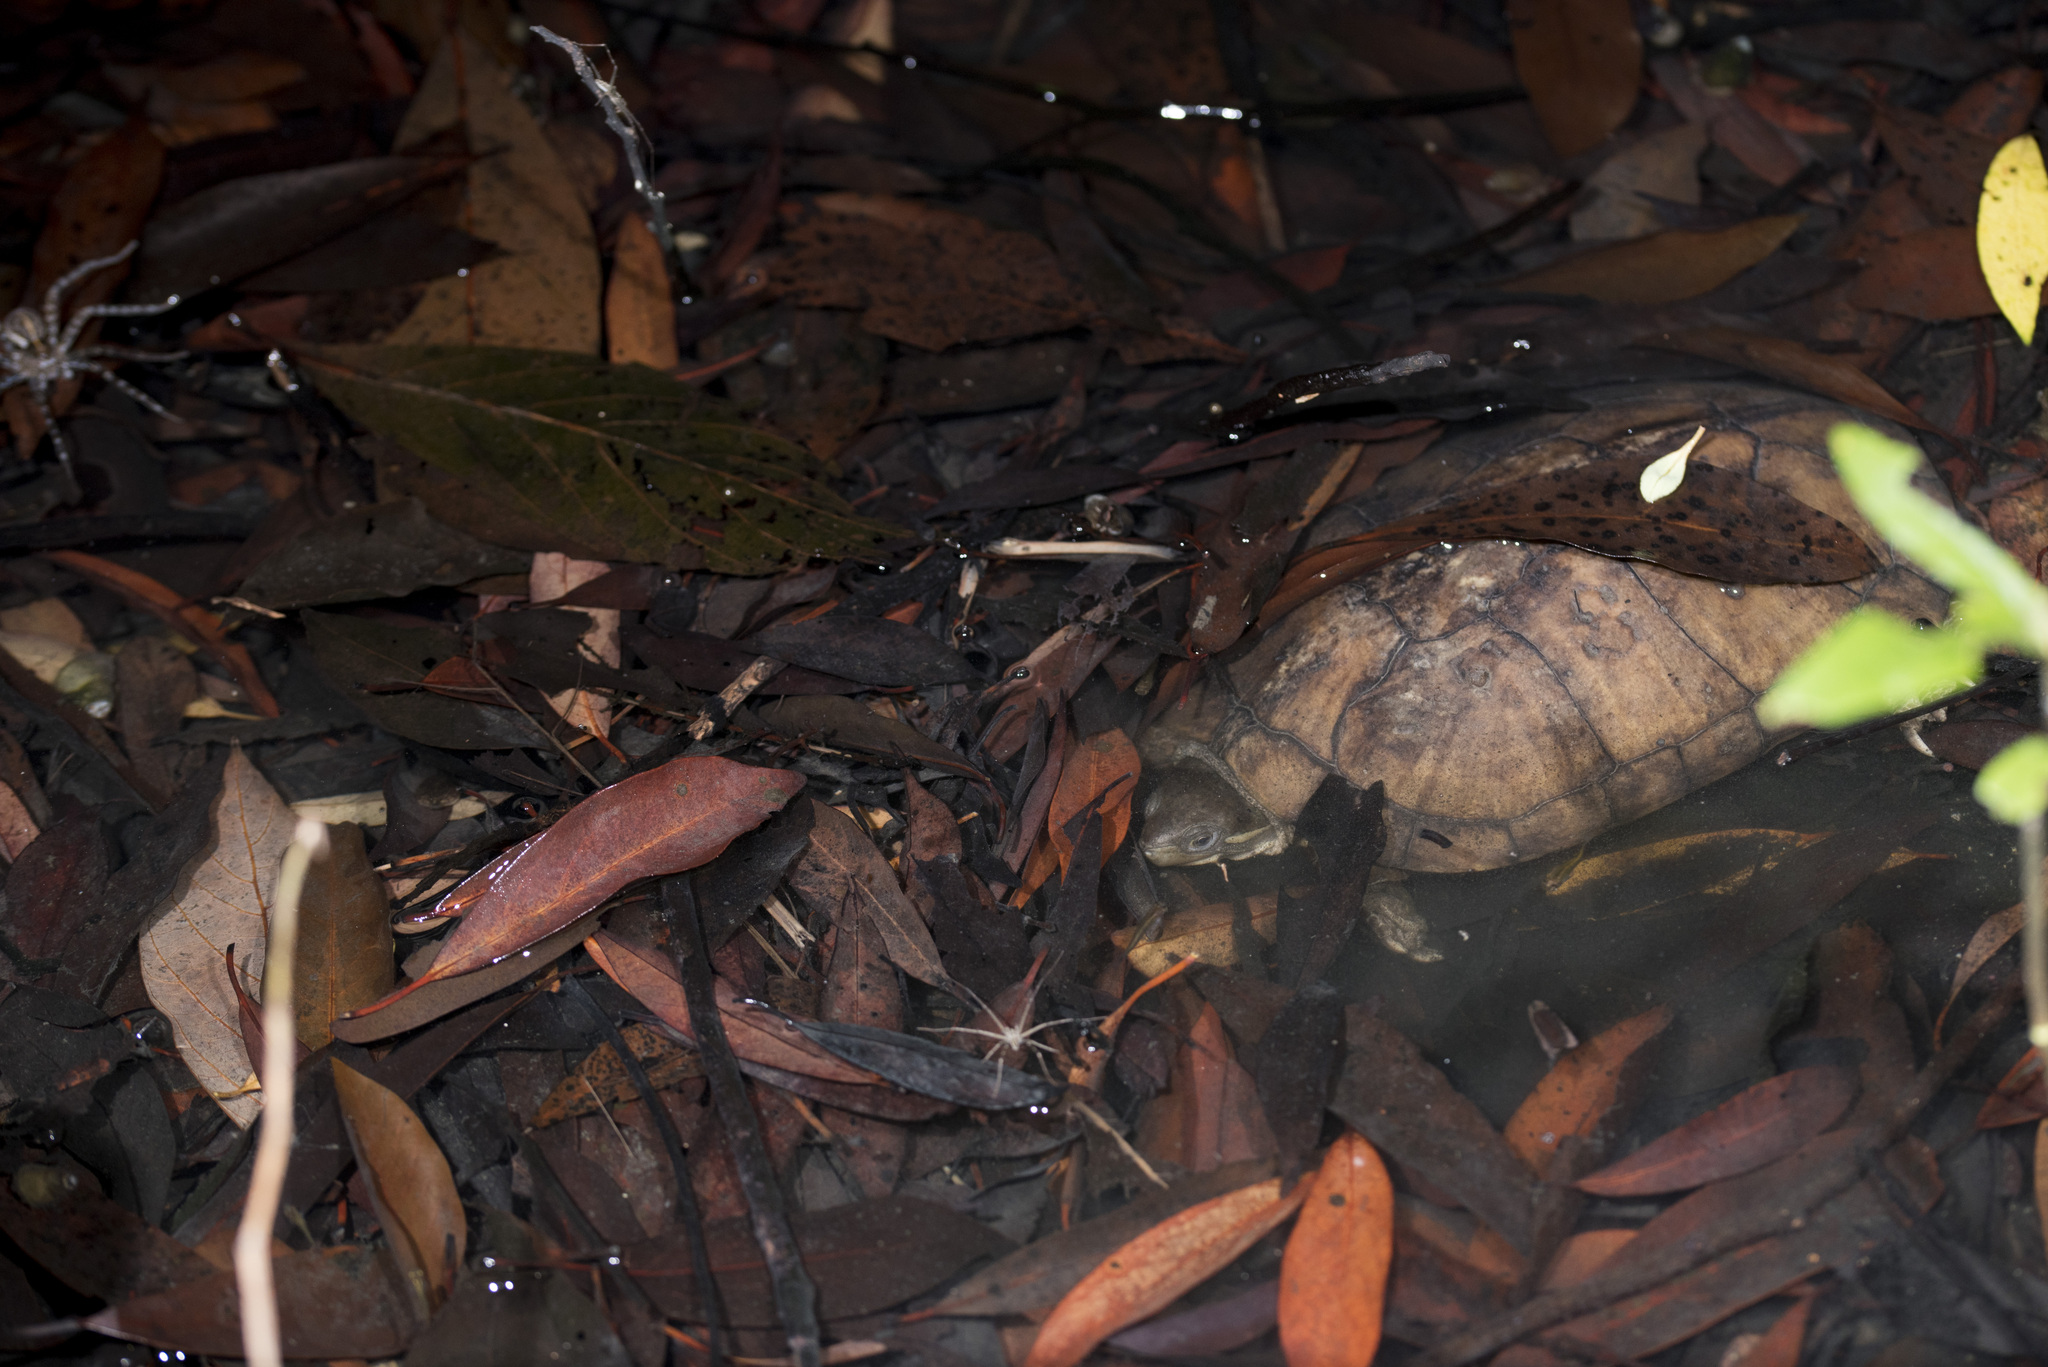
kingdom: Animalia
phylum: Chordata
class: Testudines
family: Geoemydidae
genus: Mauremys
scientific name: Mauremys mutica
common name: Yellow pond turtle
